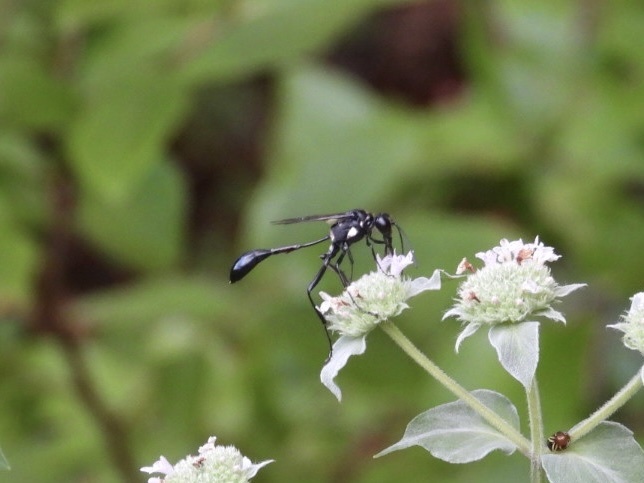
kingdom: Animalia
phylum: Arthropoda
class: Insecta
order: Hymenoptera
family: Sphecidae
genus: Eremnophila
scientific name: Eremnophila aureonotata
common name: Gold-marked thread-waisted wasp
